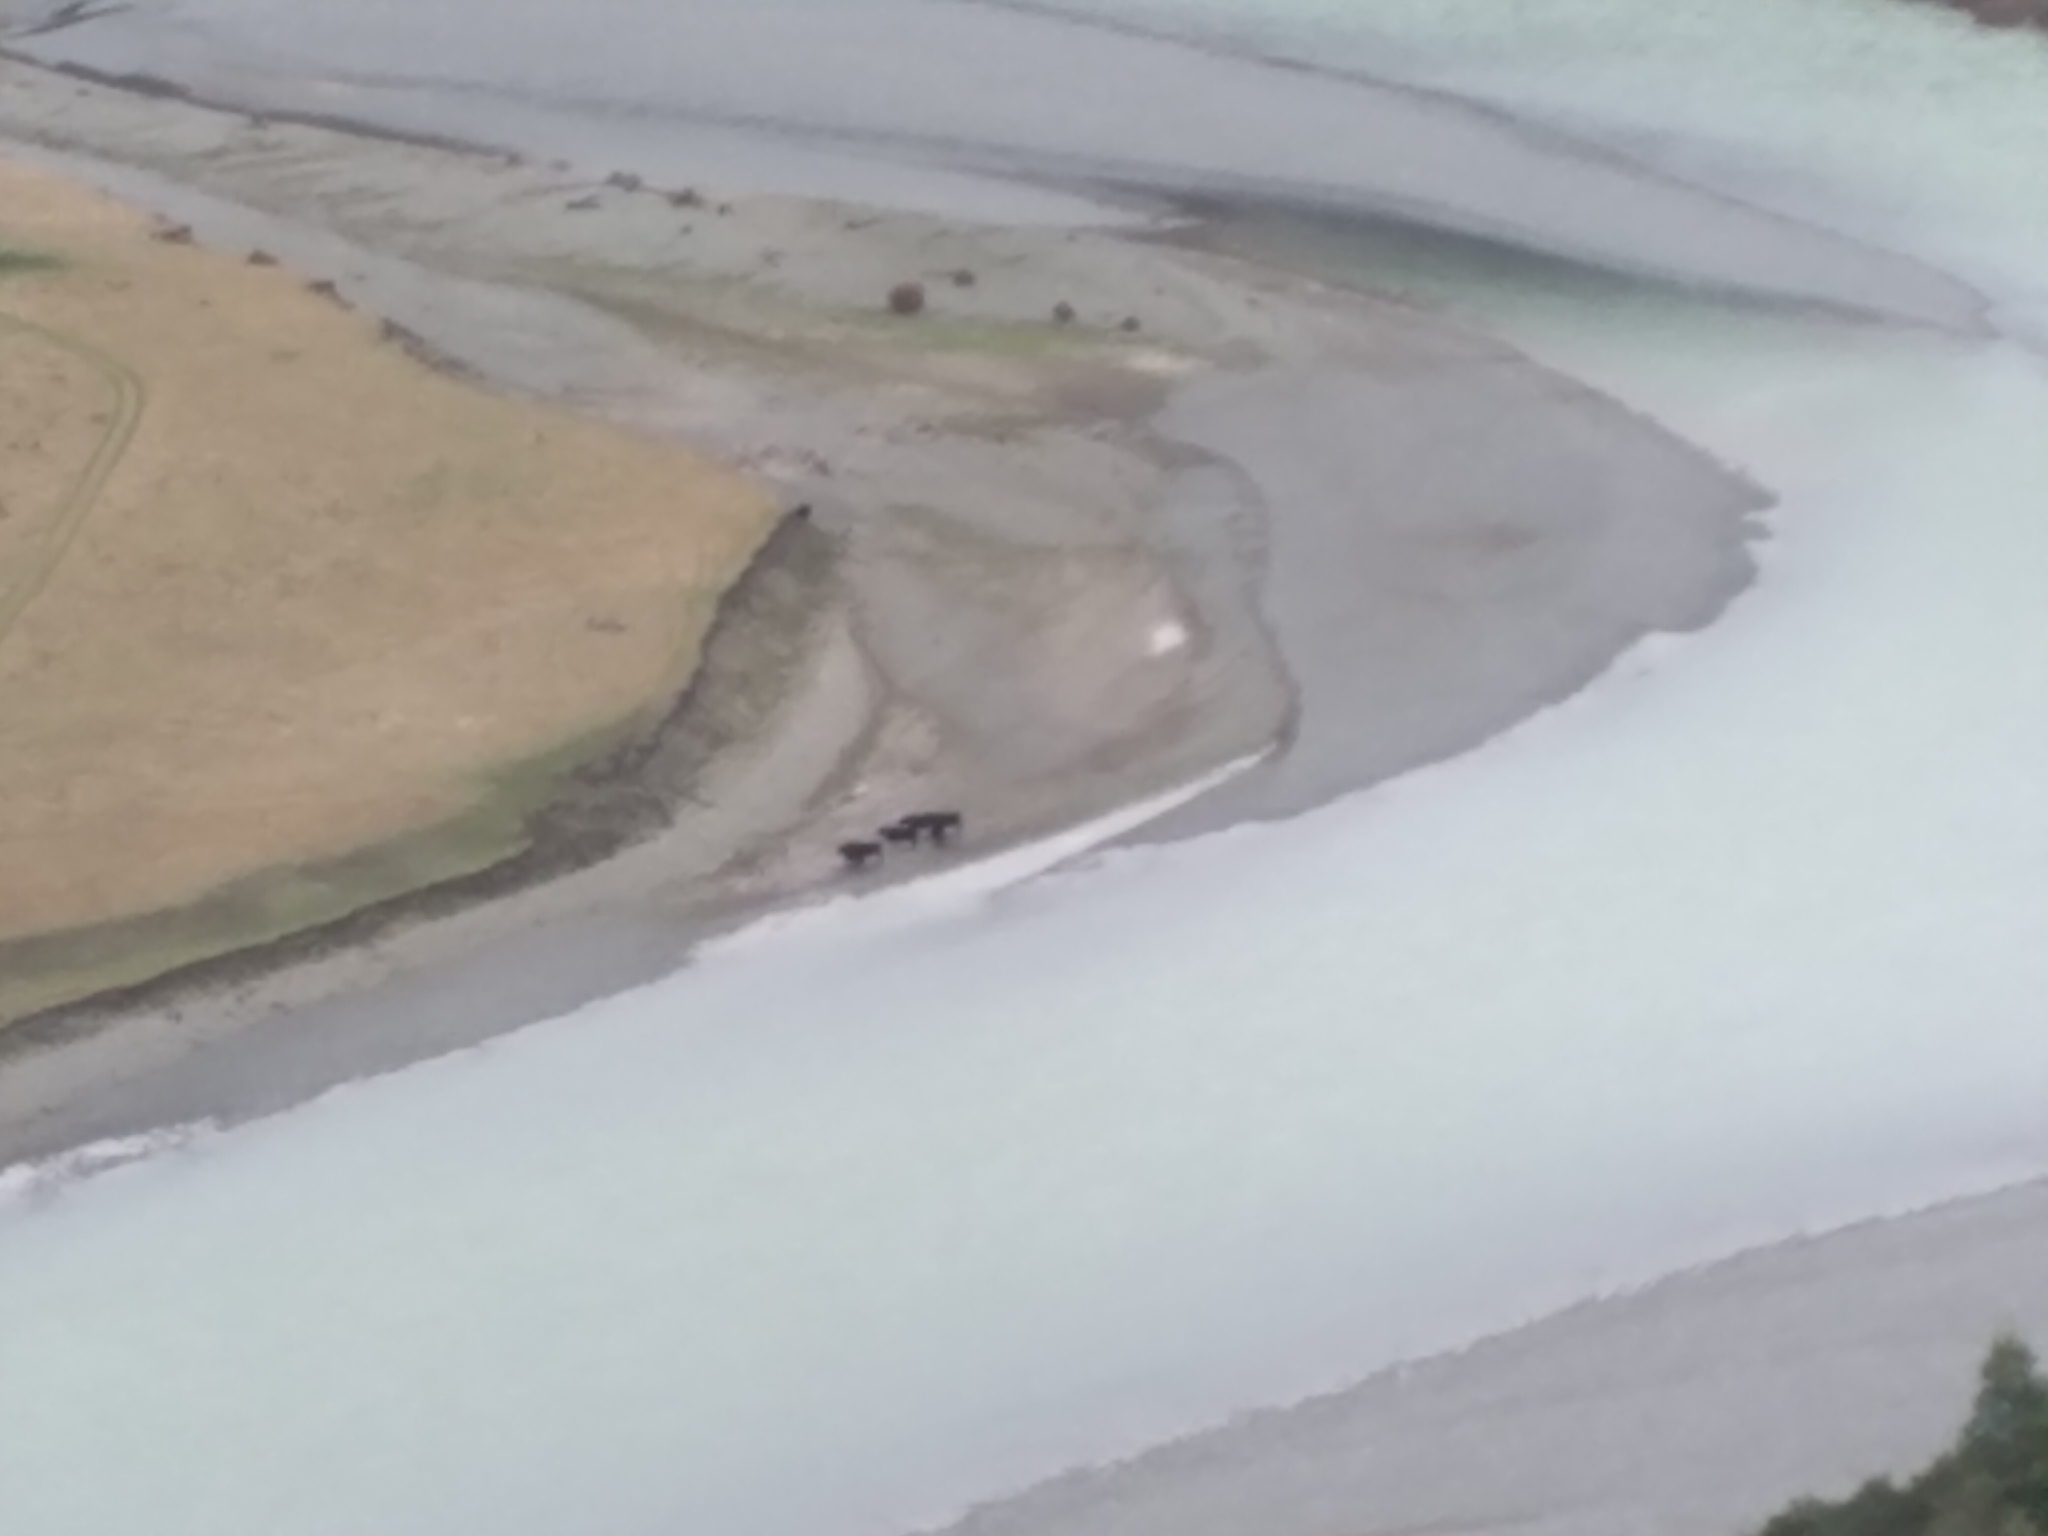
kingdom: Animalia
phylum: Chordata
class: Mammalia
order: Artiodactyla
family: Bovidae
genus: Bos
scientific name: Bos taurus
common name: Domesticated cattle
